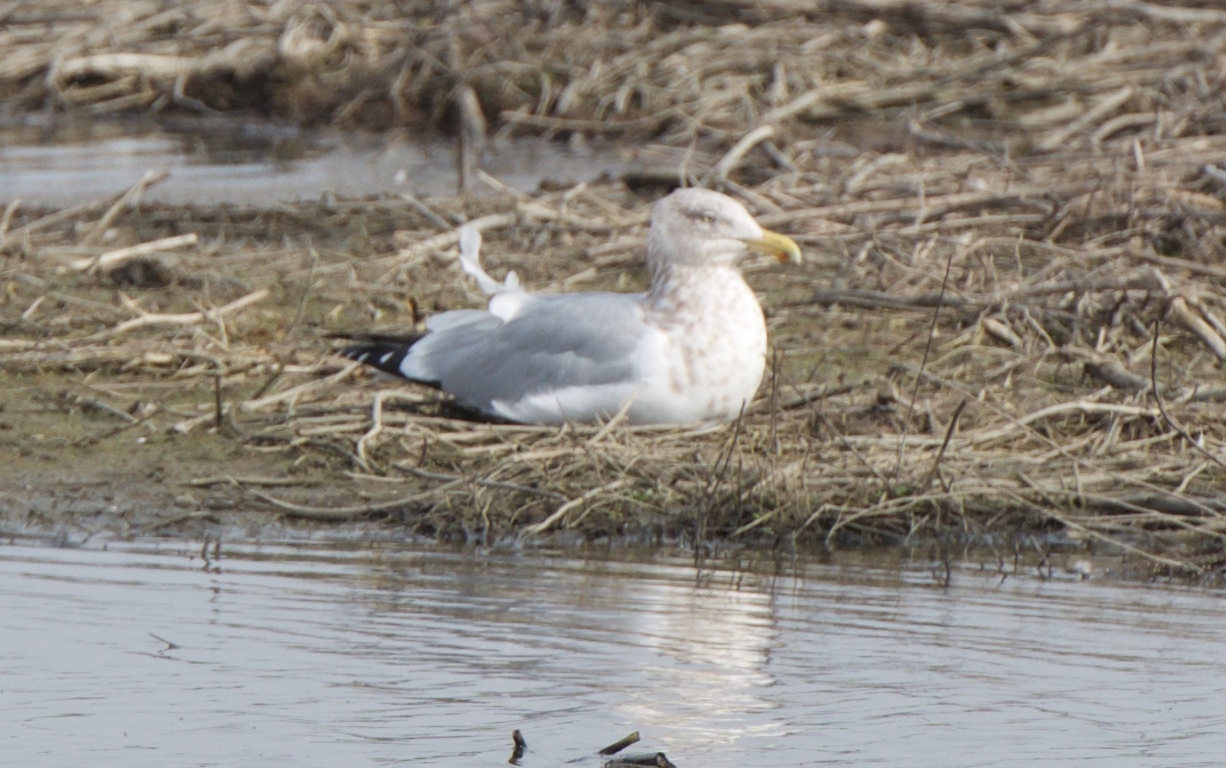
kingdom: Animalia
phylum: Chordata
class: Aves
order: Charadriiformes
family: Laridae
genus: Larus
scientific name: Larus argentatus
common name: Herring gull
